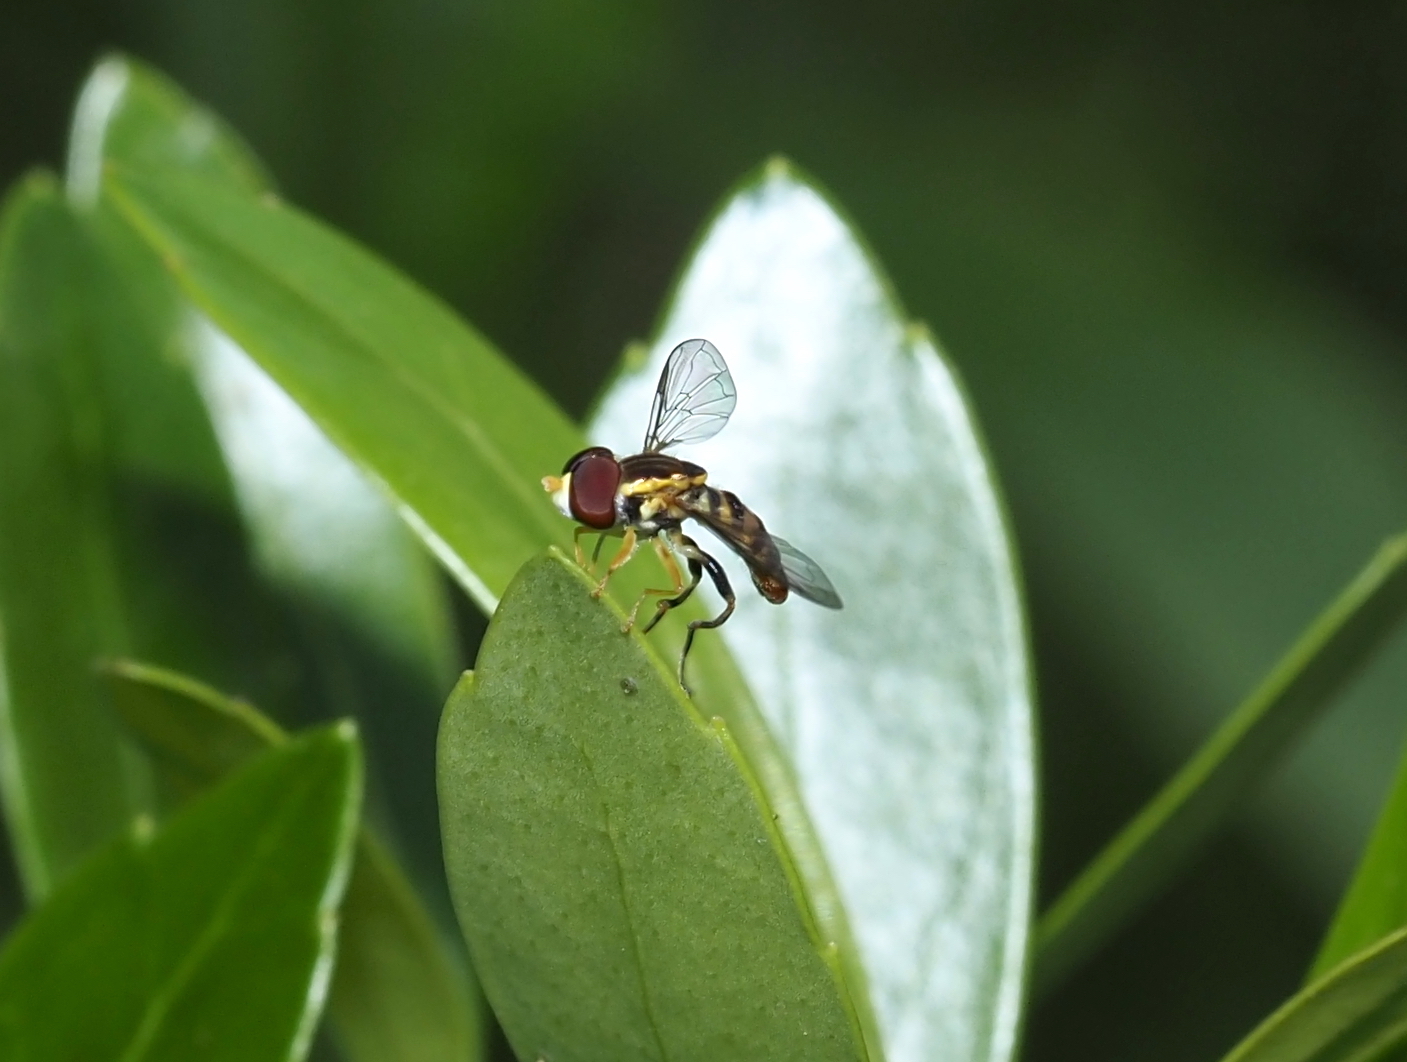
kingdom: Animalia
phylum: Arthropoda
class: Insecta
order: Diptera
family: Syrphidae
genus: Toxomerus
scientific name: Toxomerus geminatus
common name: Eastern calligrapher
